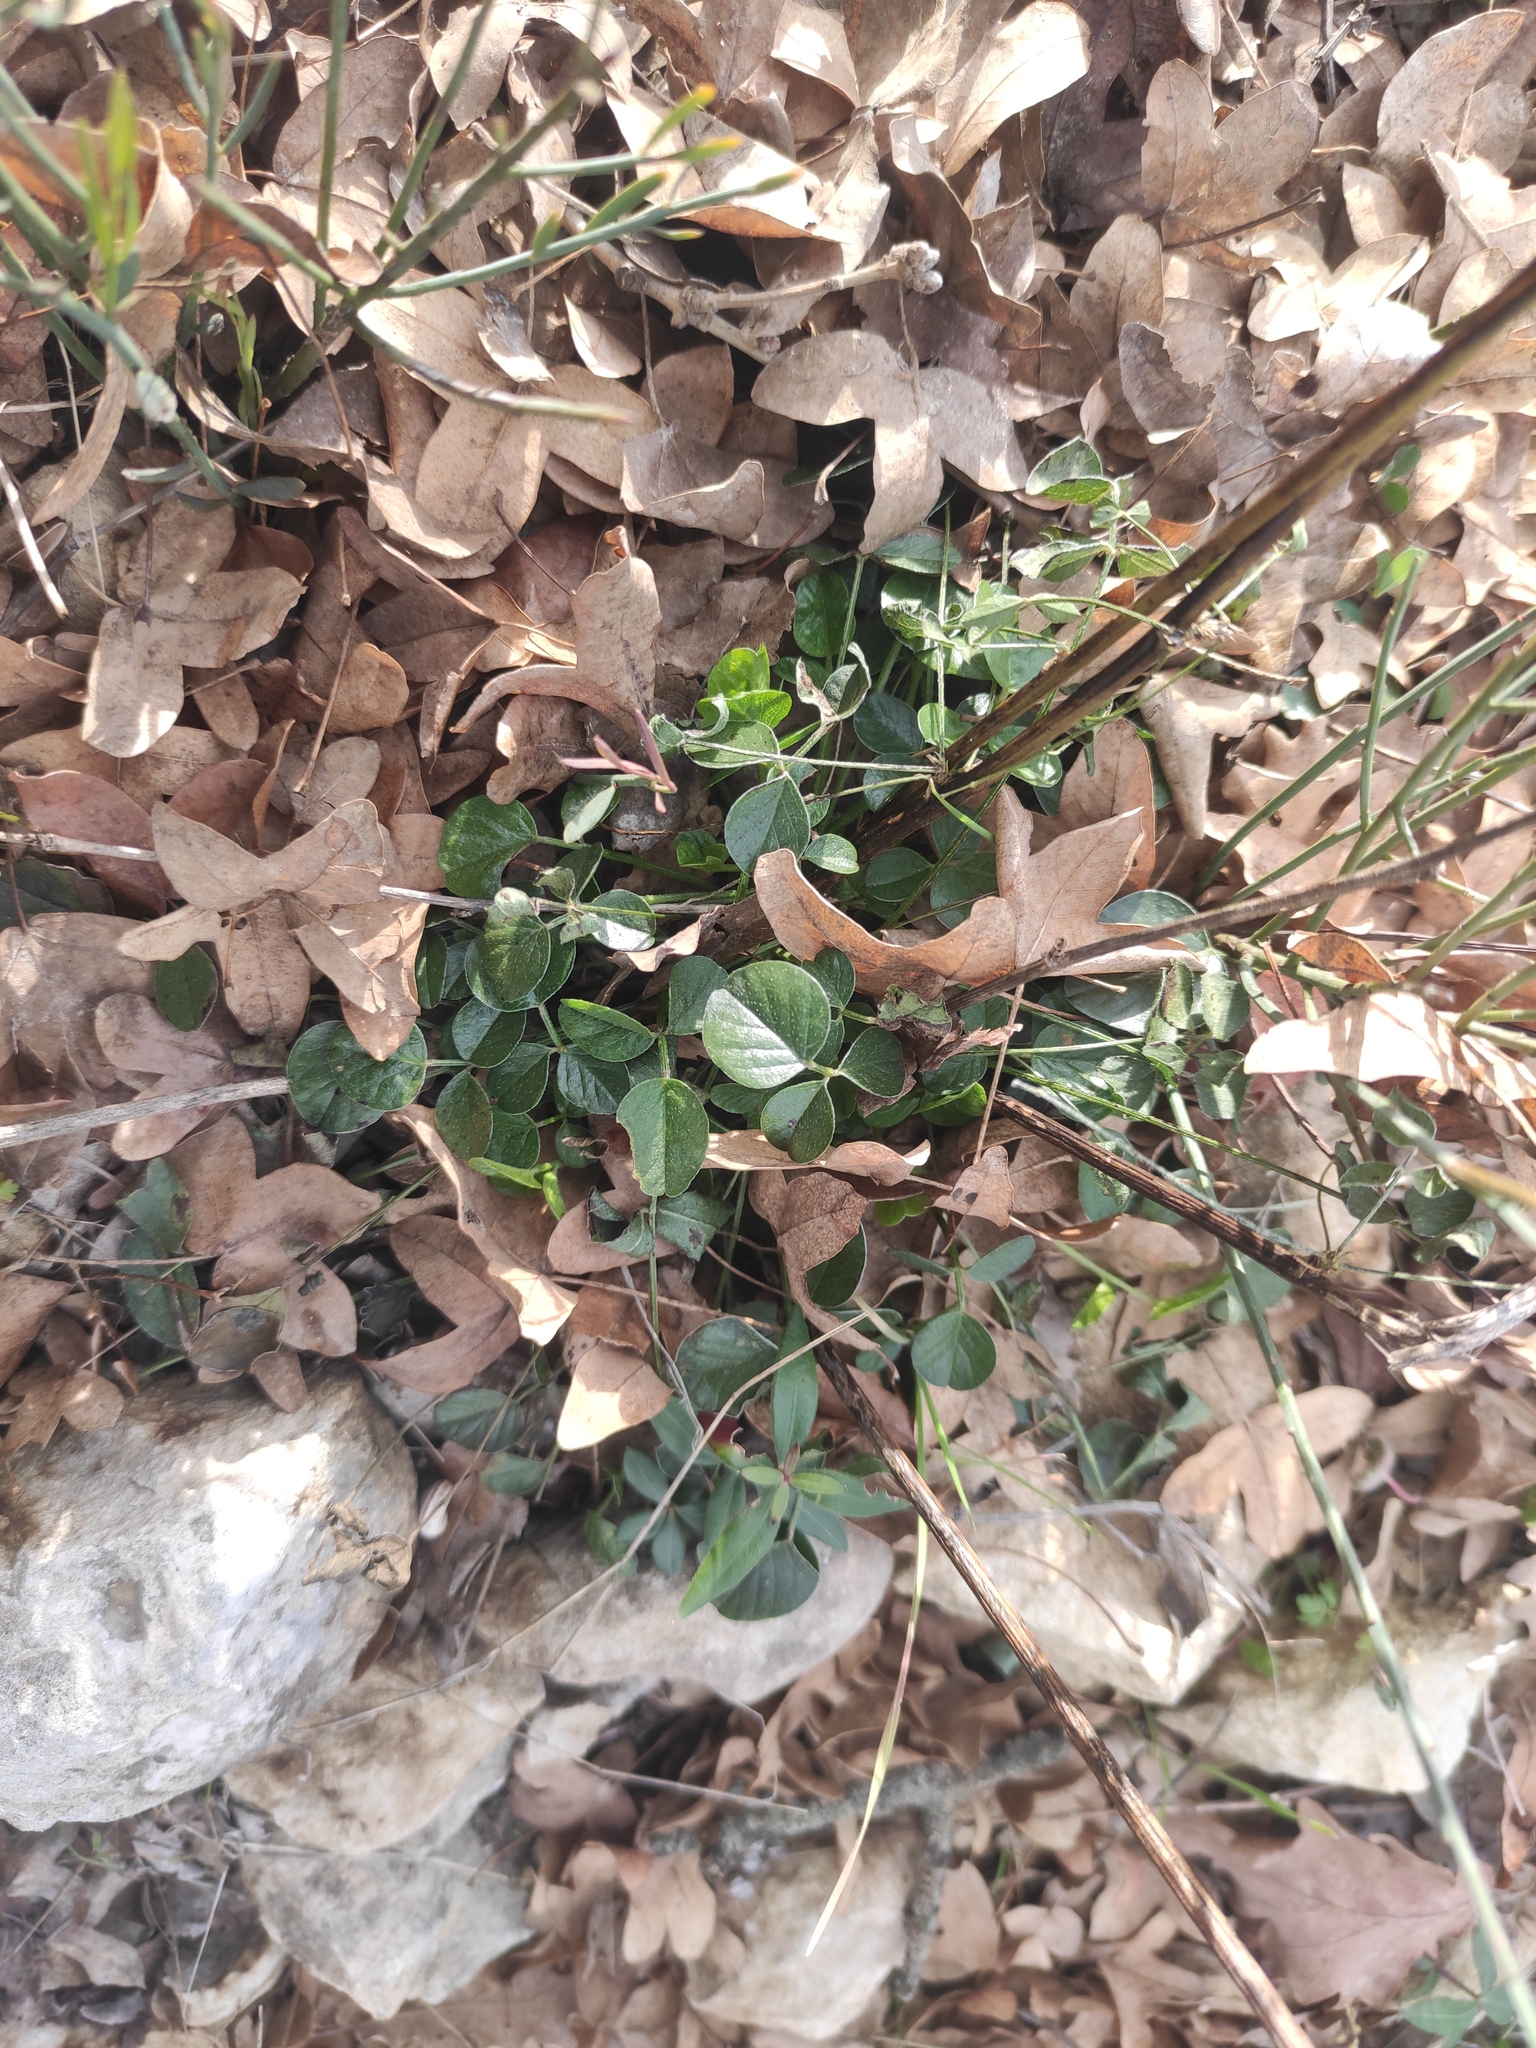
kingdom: Plantae
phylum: Tracheophyta
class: Magnoliopsida
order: Fabales
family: Fabaceae
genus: Bituminaria
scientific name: Bituminaria bituminosa
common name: Arabian pea
